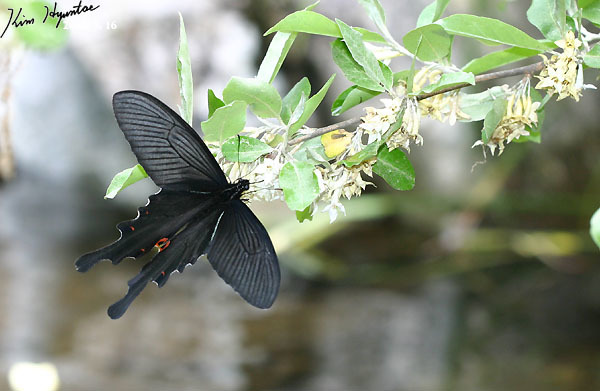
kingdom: Animalia
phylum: Arthropoda
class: Insecta
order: Lepidoptera
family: Papilionidae
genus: Papilio
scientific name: Papilio macilentus
